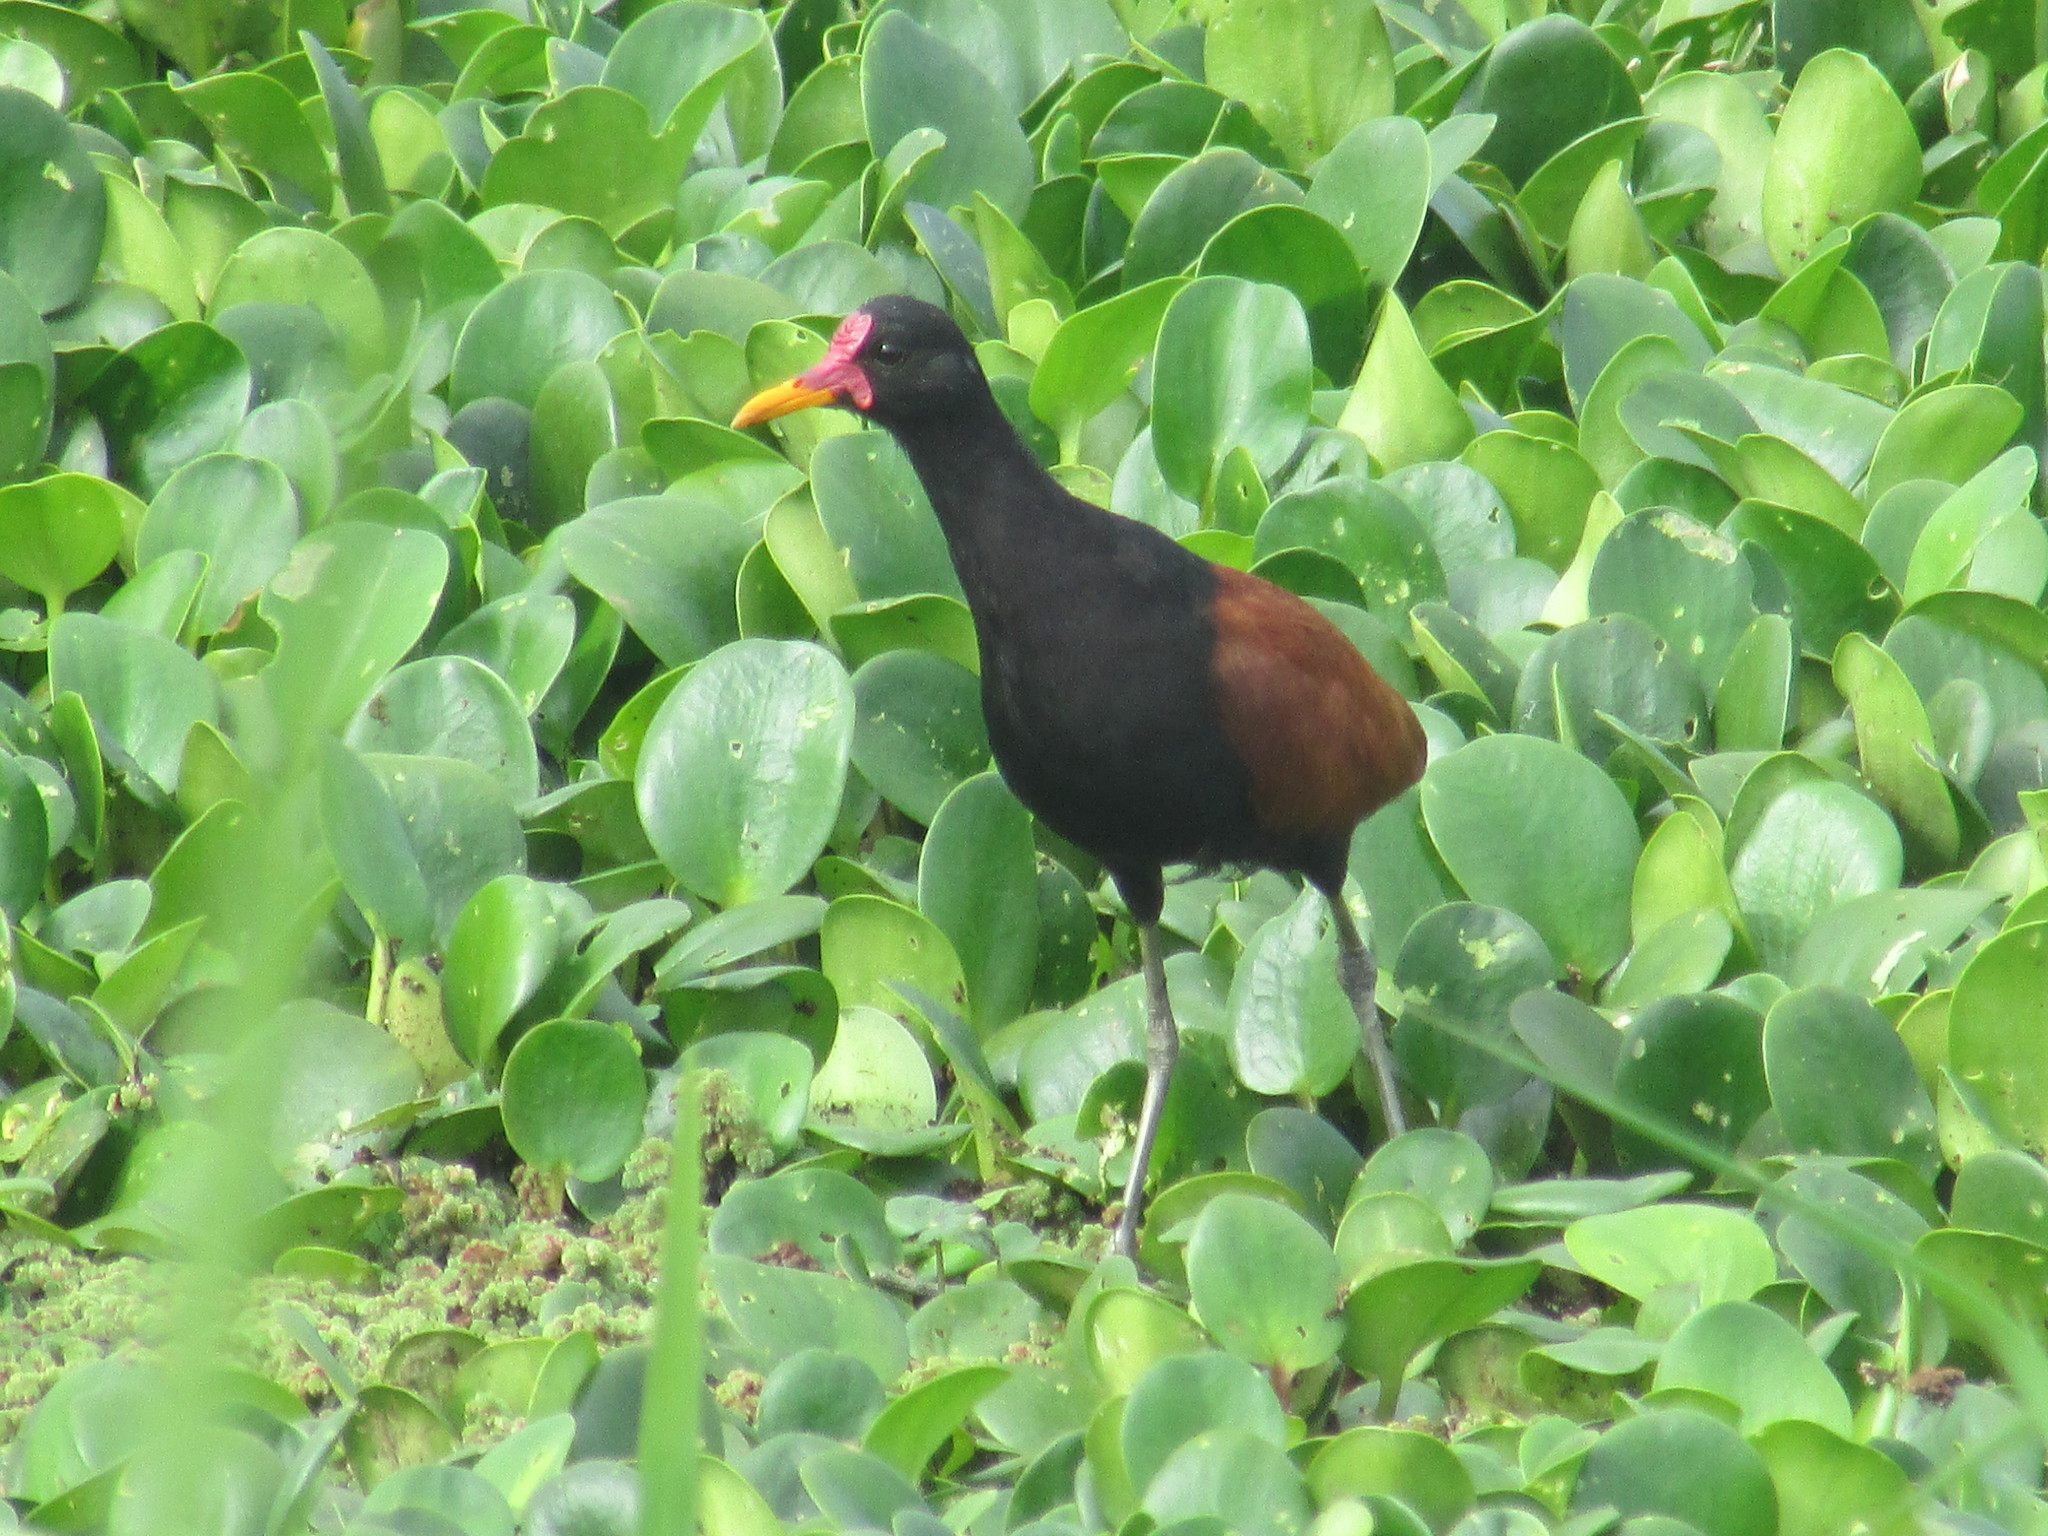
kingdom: Animalia
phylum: Chordata
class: Aves
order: Charadriiformes
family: Jacanidae
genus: Jacana
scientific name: Jacana jacana
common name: Wattled jacana
